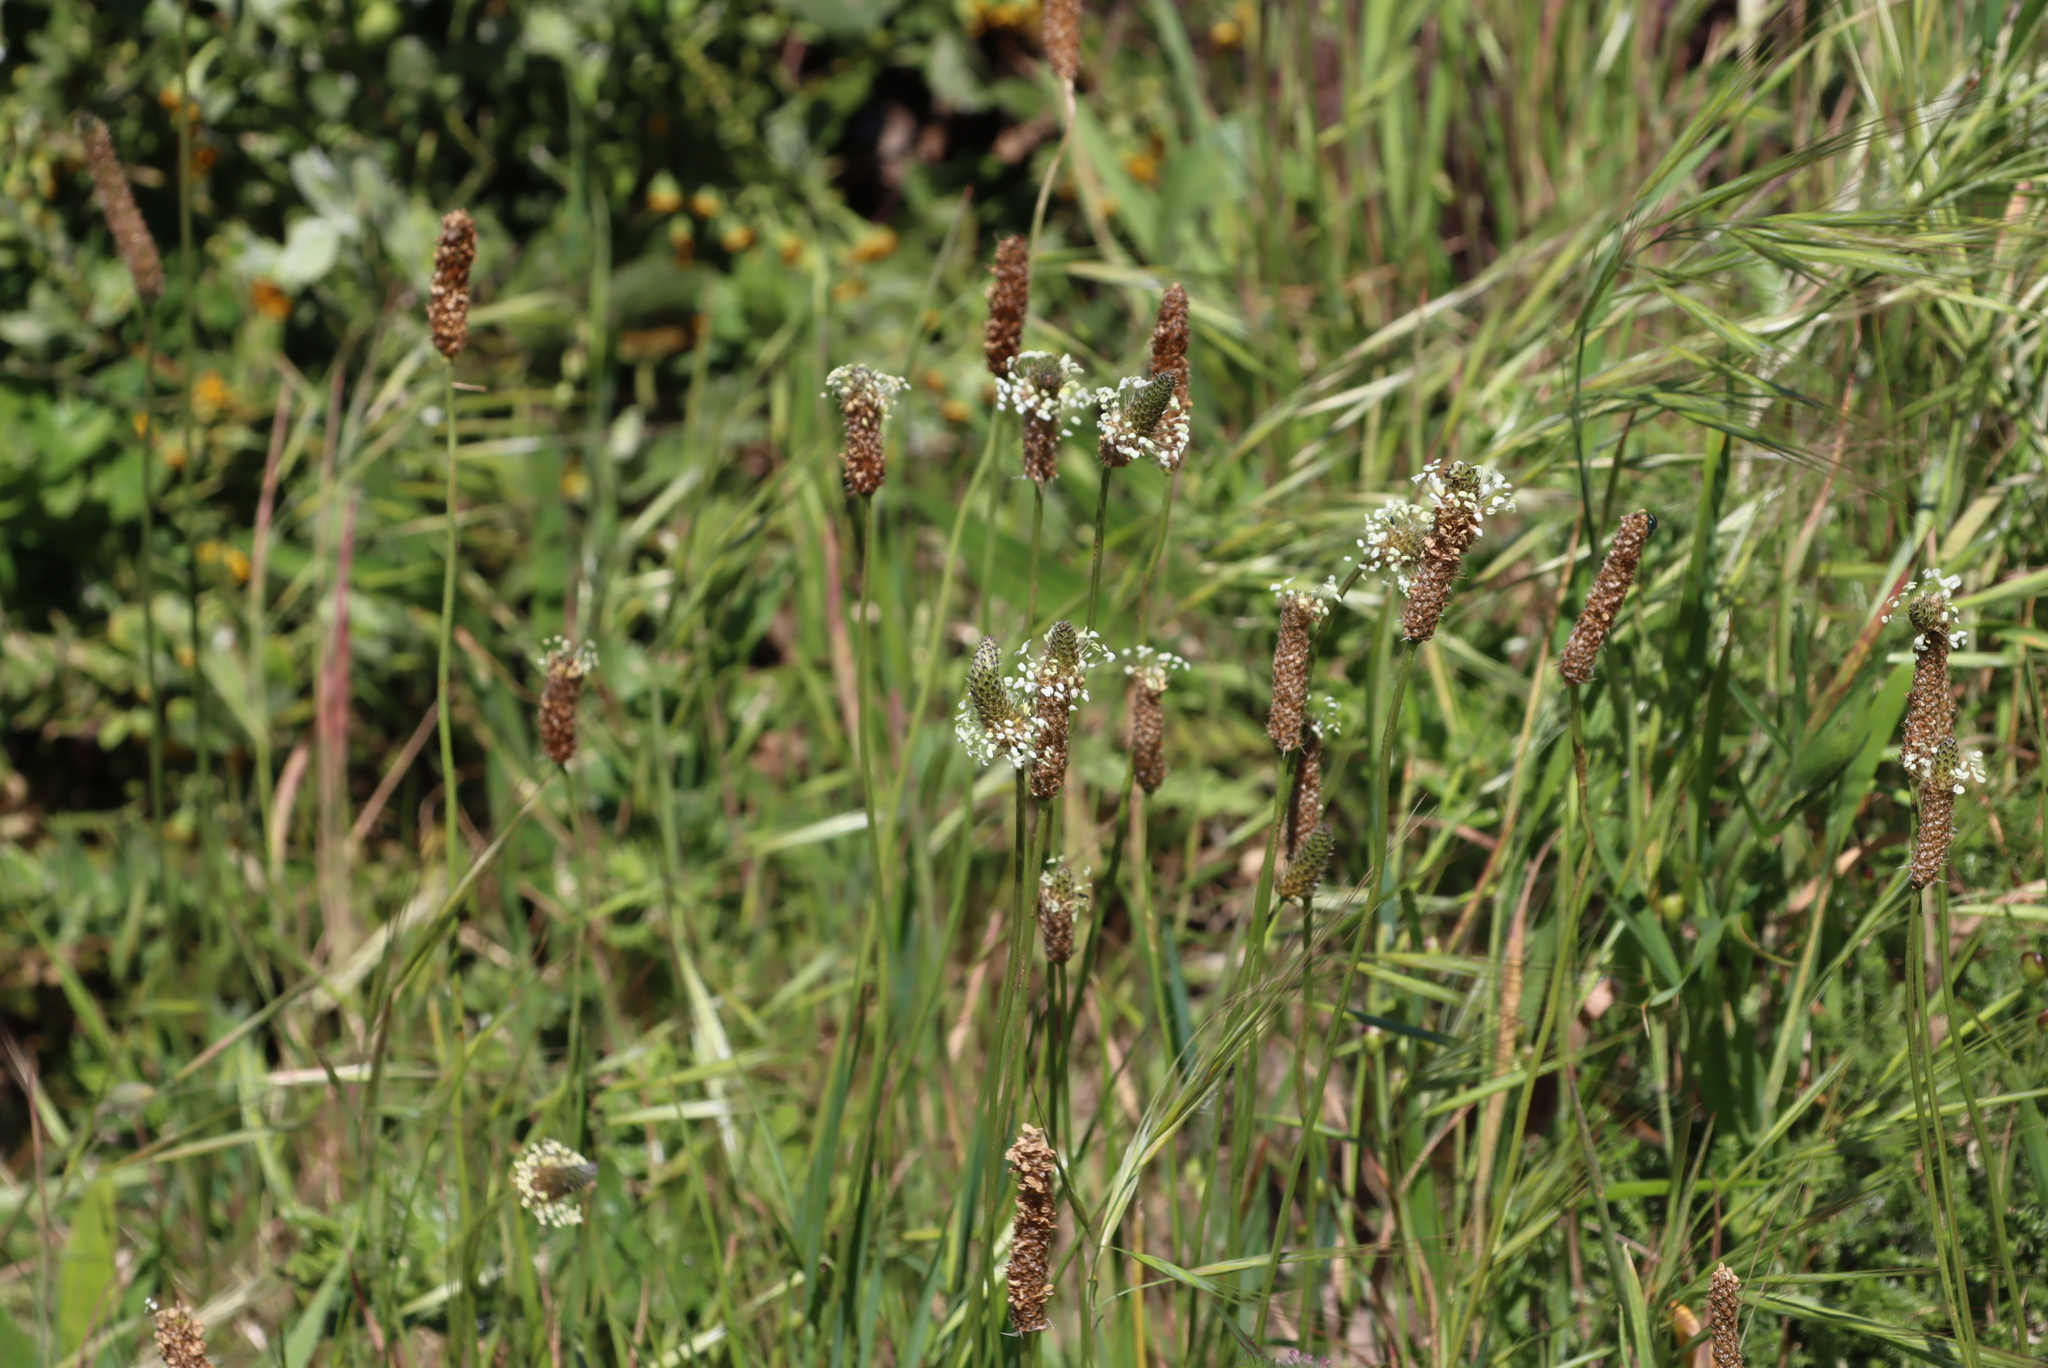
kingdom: Plantae
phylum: Tracheophyta
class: Magnoliopsida
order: Lamiales
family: Plantaginaceae
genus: Plantago
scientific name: Plantago lanceolata
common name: Ribwort plantain
